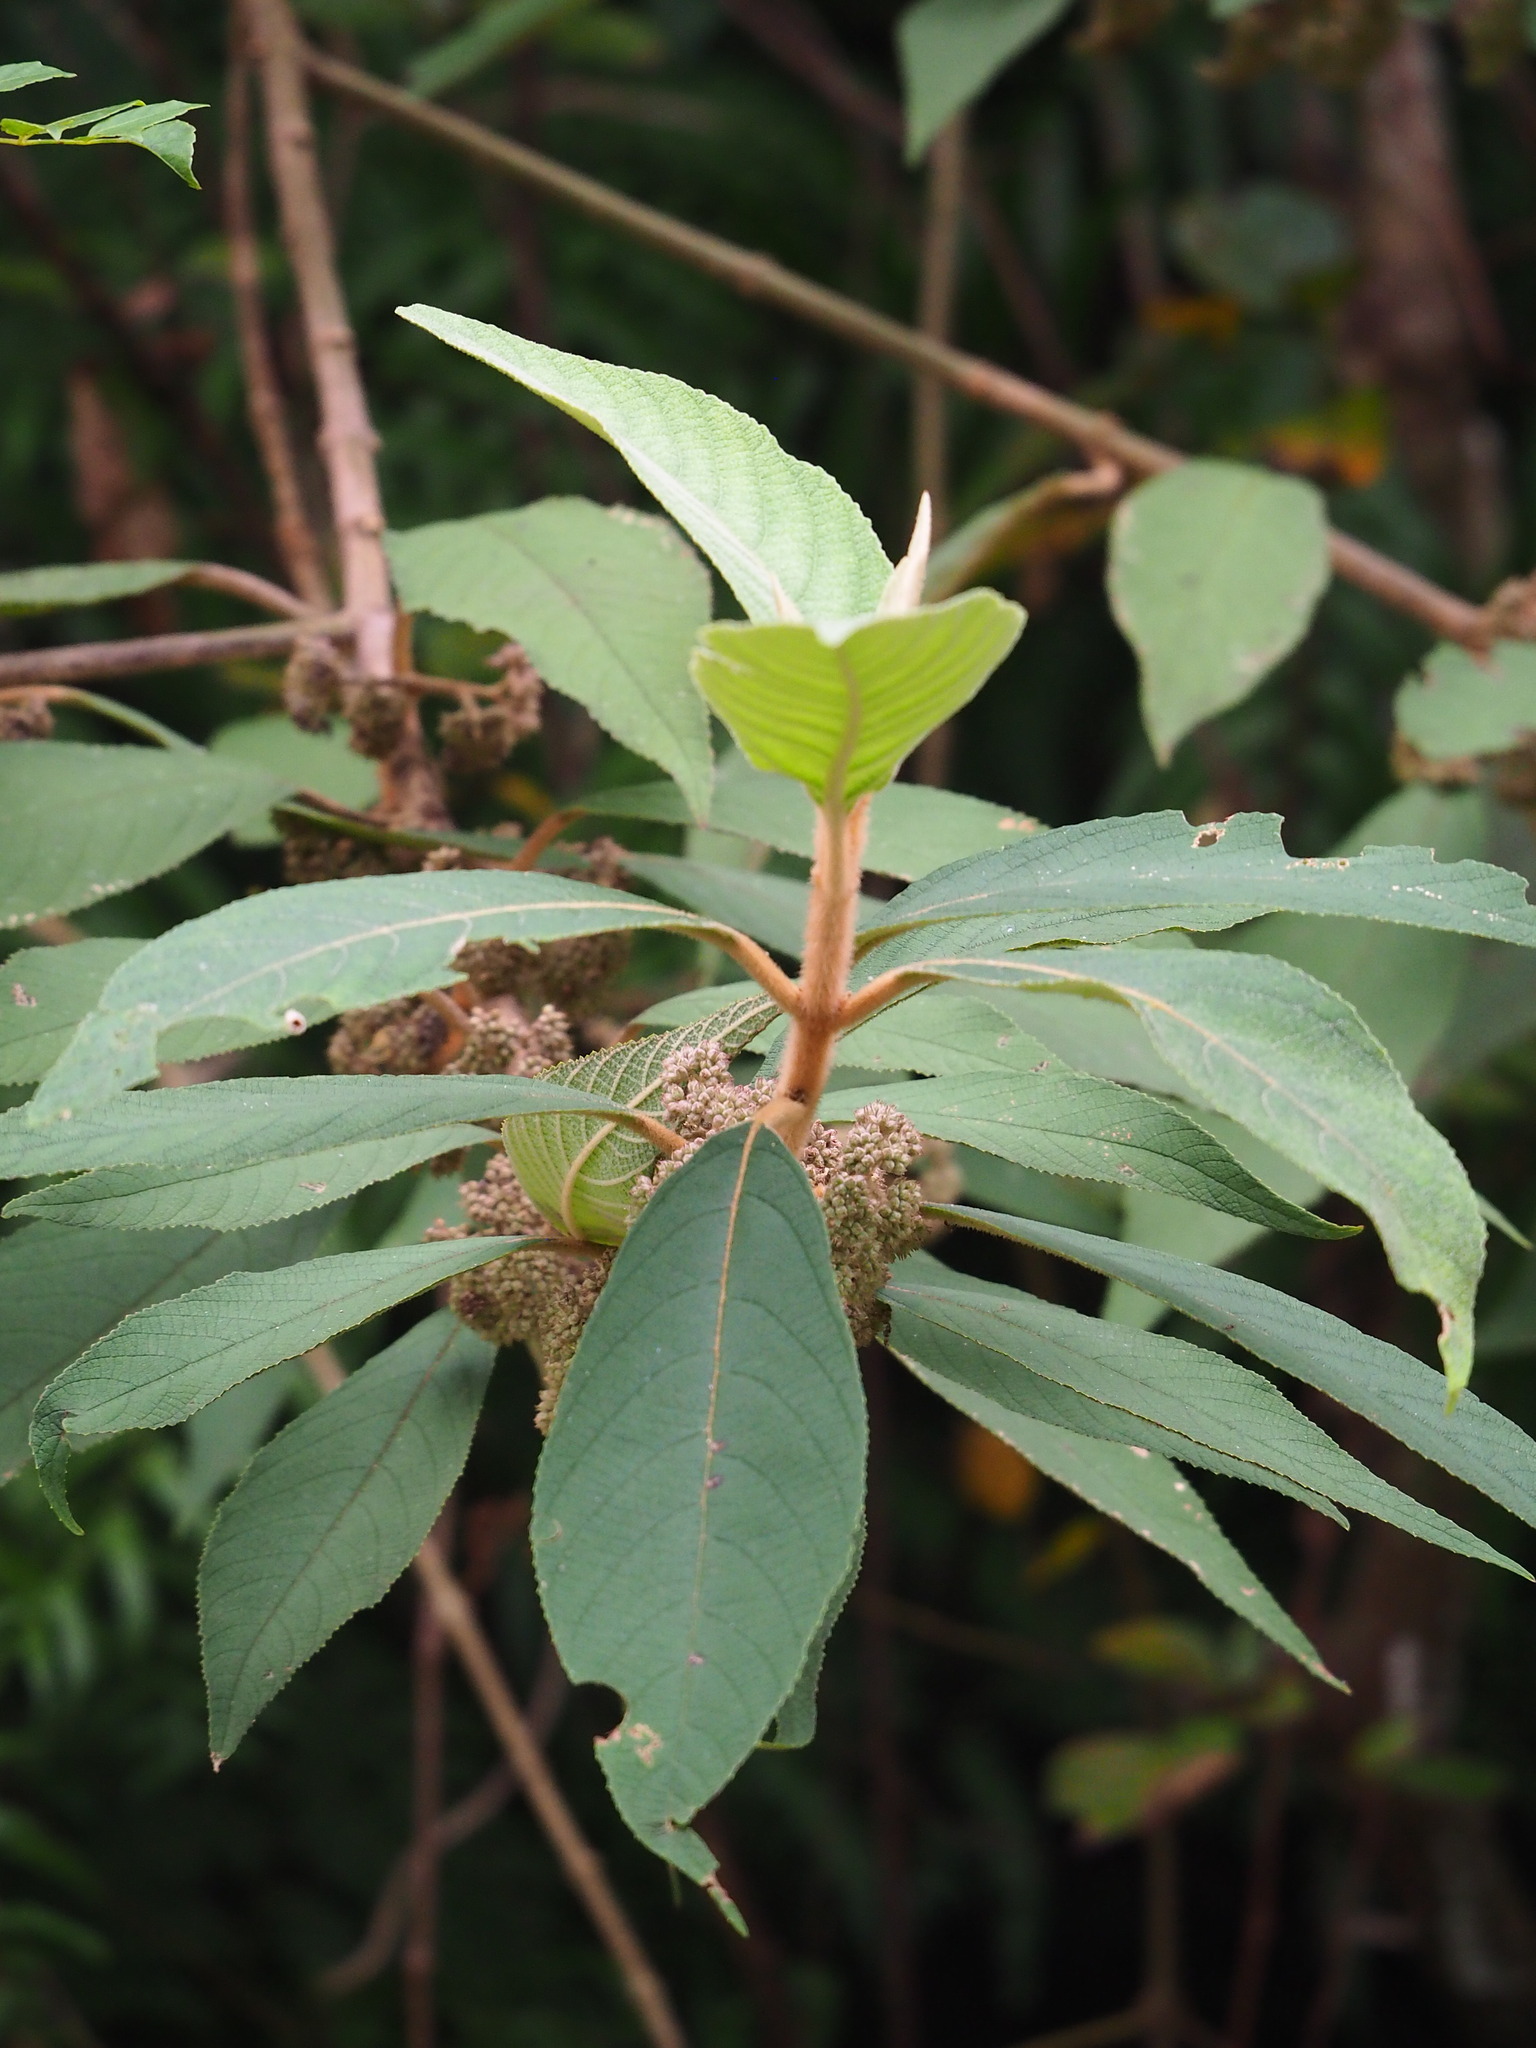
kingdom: Plantae
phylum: Tracheophyta
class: Magnoliopsida
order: Lamiales
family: Lamiaceae
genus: Callicarpa
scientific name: Callicarpa kochiana
